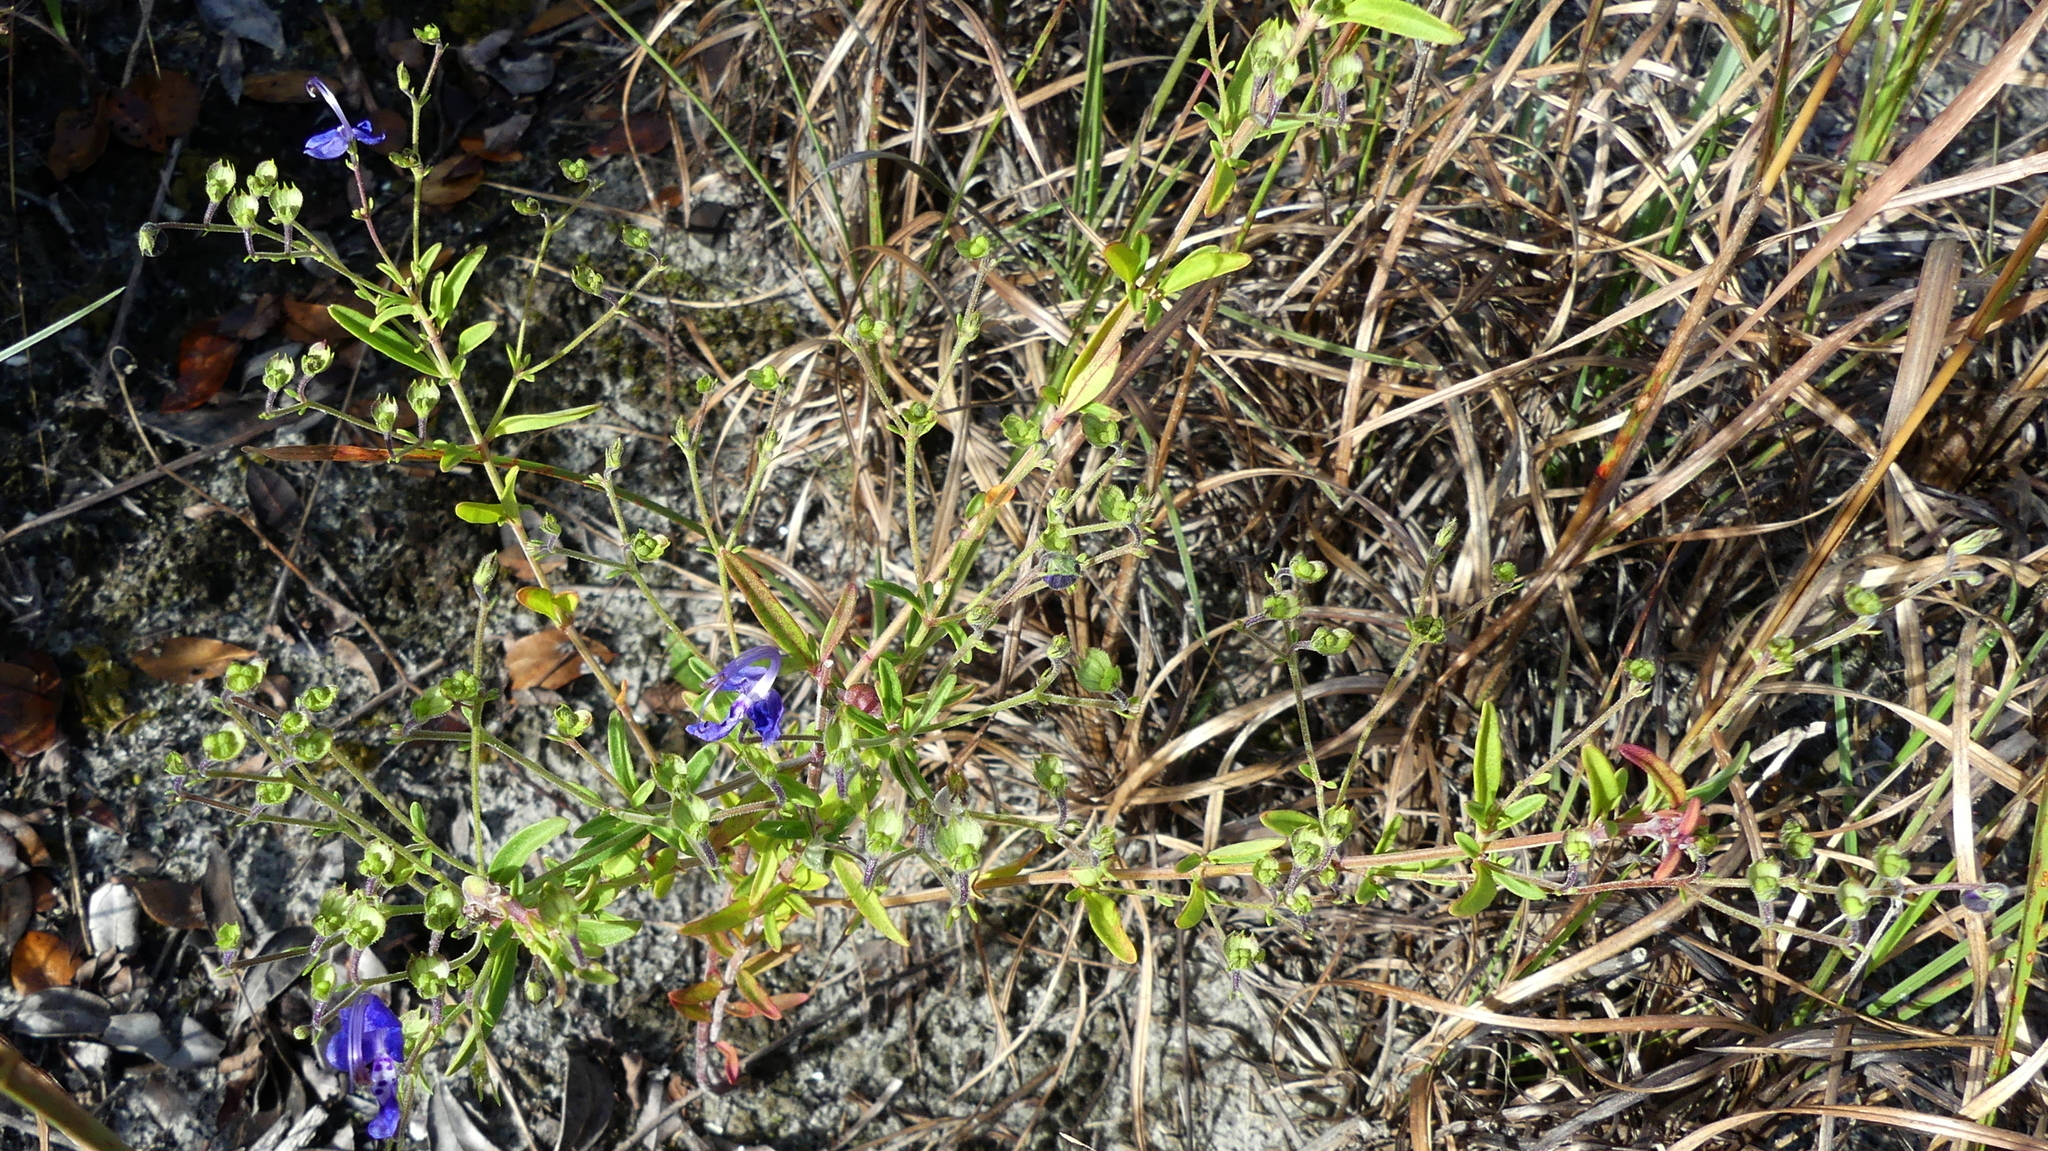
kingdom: Plantae
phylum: Tracheophyta
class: Magnoliopsida
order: Lamiales
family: Lamiaceae
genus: Trichostema
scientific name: Trichostema dichotomum
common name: Bastard pennyroyal
